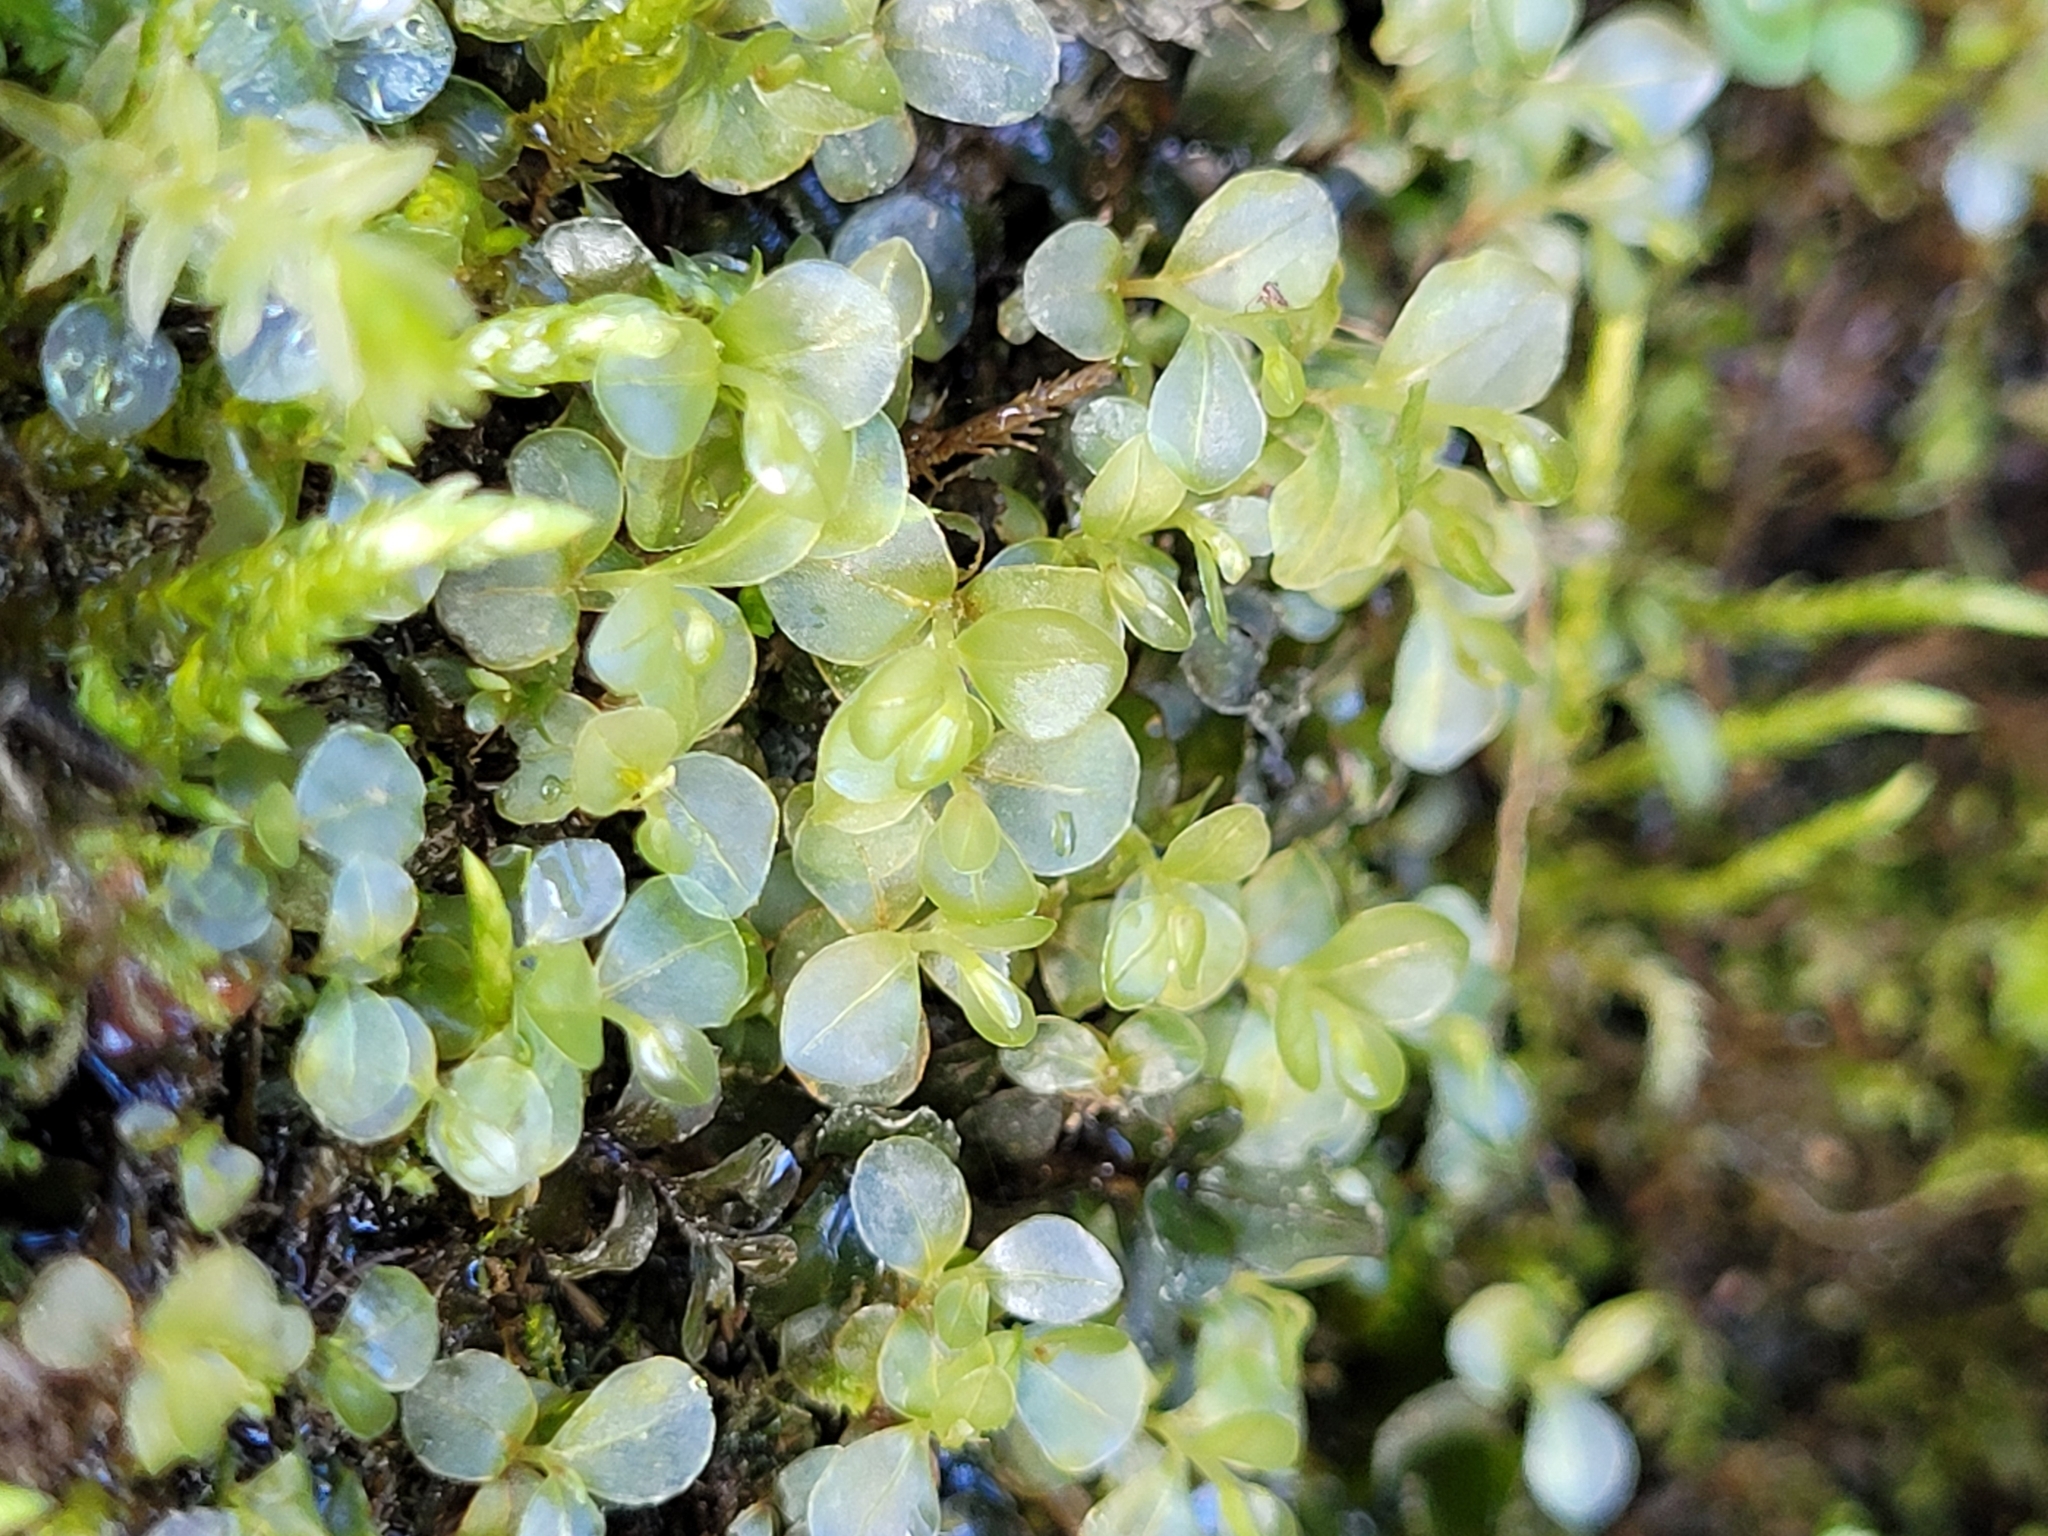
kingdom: Plantae
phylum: Bryophyta
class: Bryopsida
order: Bryales
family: Mniaceae
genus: Rhizomnium
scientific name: Rhizomnium punctatum
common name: Dotted leafy moss
